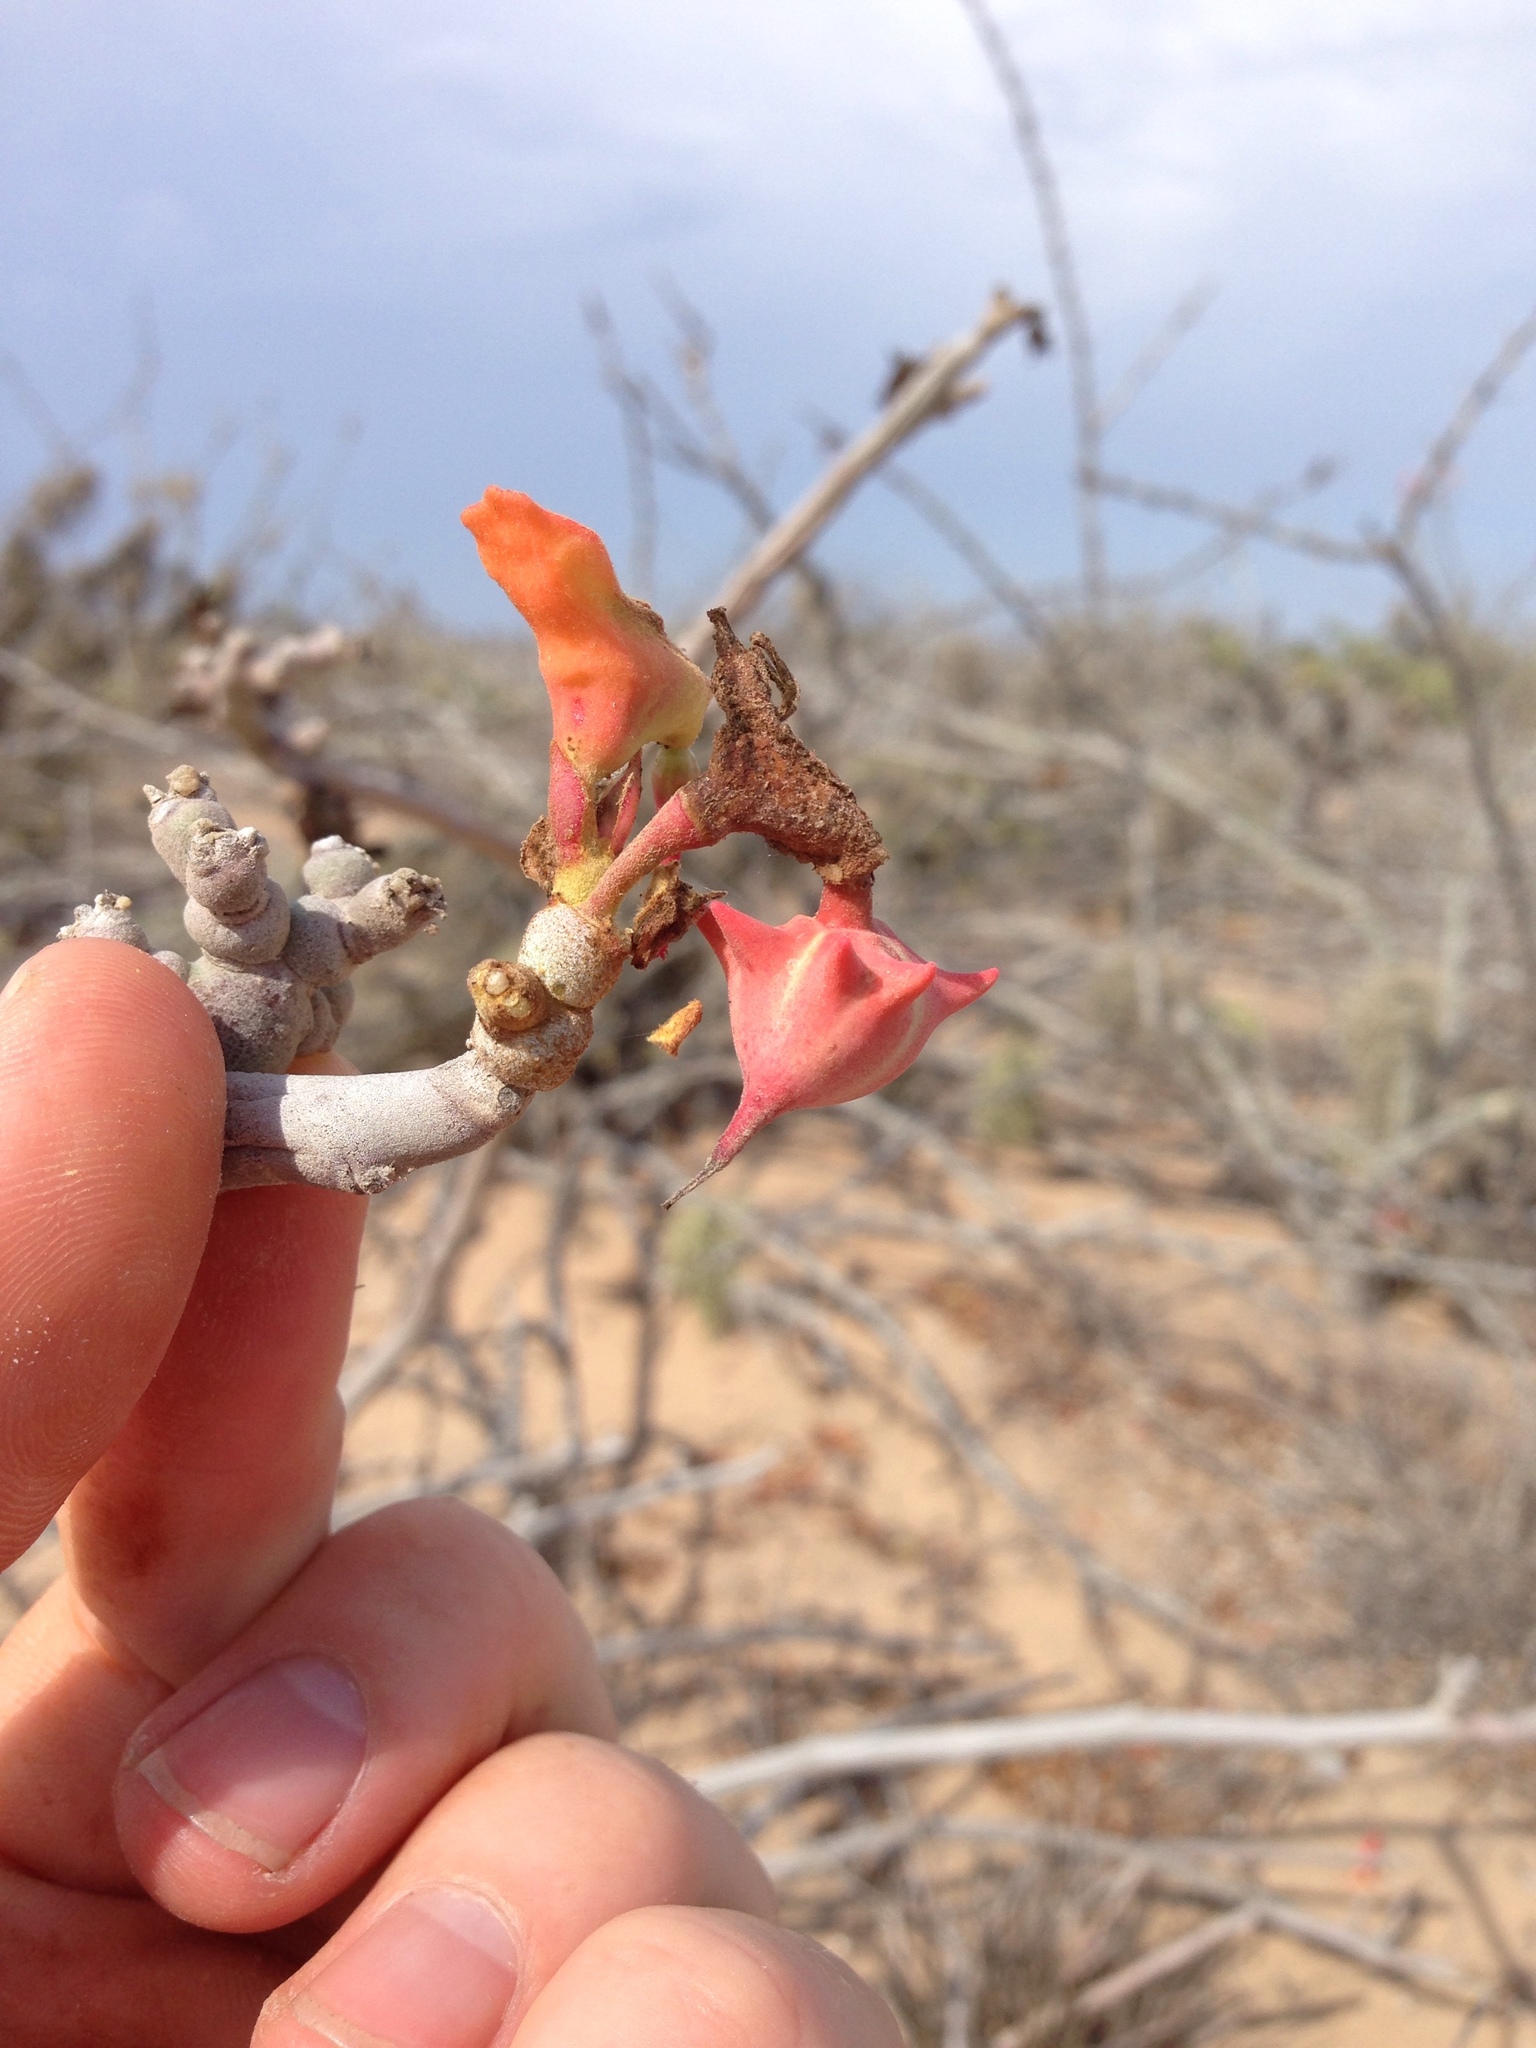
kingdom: Plantae
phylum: Tracheophyta
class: Magnoliopsida
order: Malpighiales
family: Euphorbiaceae
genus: Euphorbia
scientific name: Euphorbia lomelii
